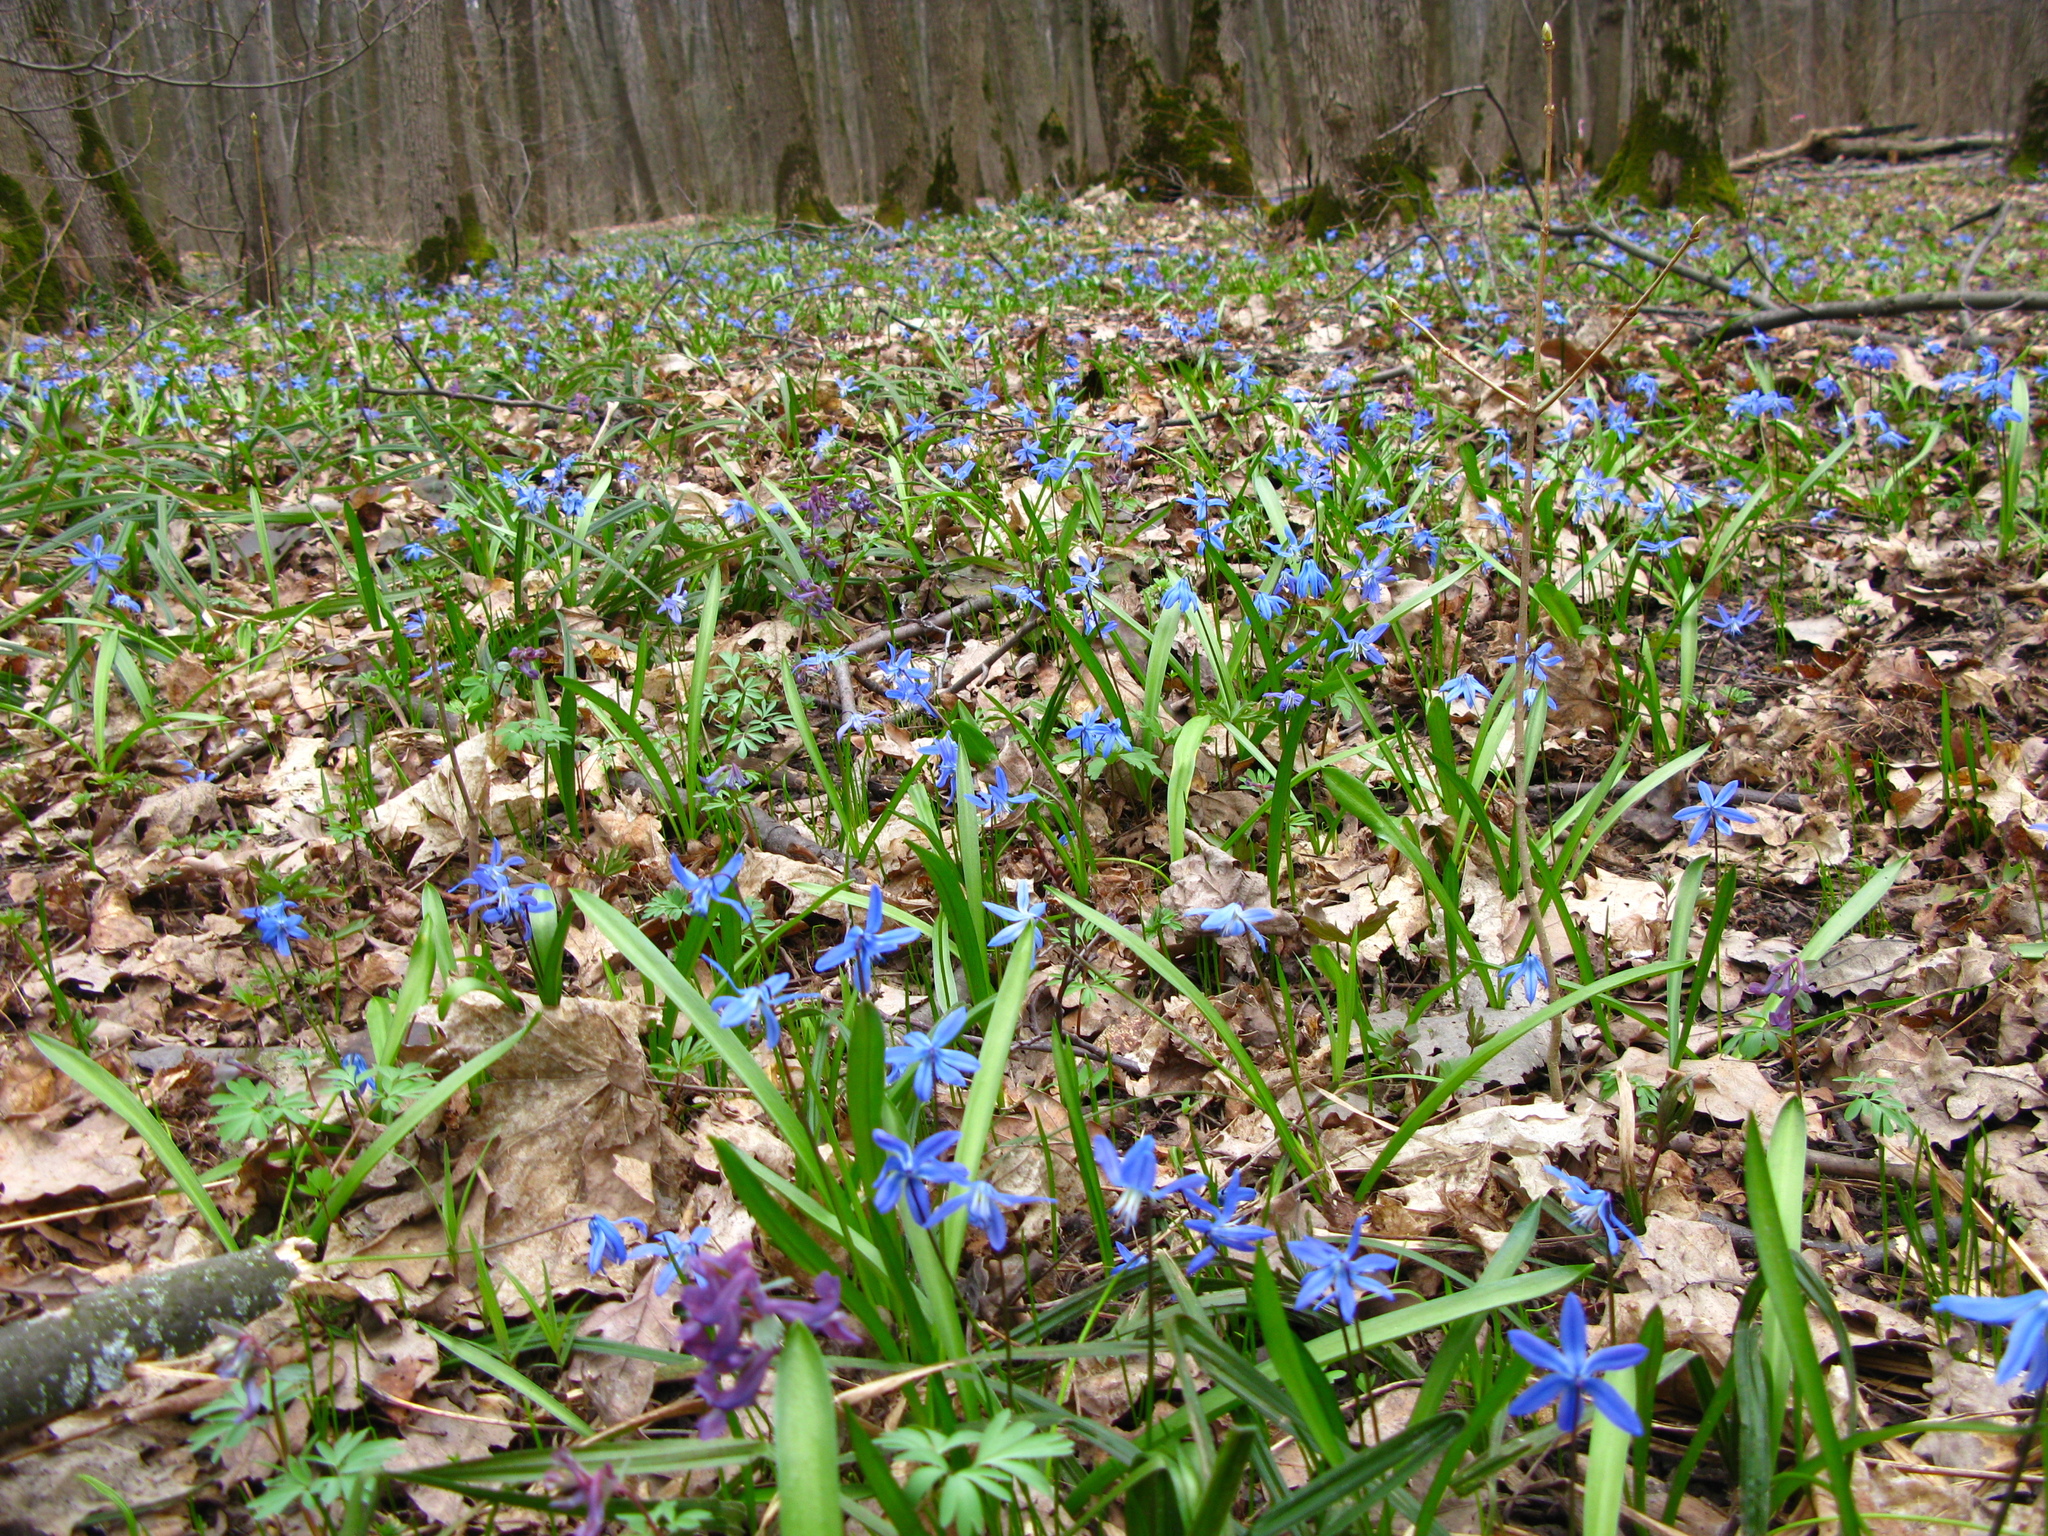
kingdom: Plantae
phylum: Tracheophyta
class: Liliopsida
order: Asparagales
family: Asparagaceae
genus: Scilla
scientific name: Scilla siberica
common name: Siberian squill
